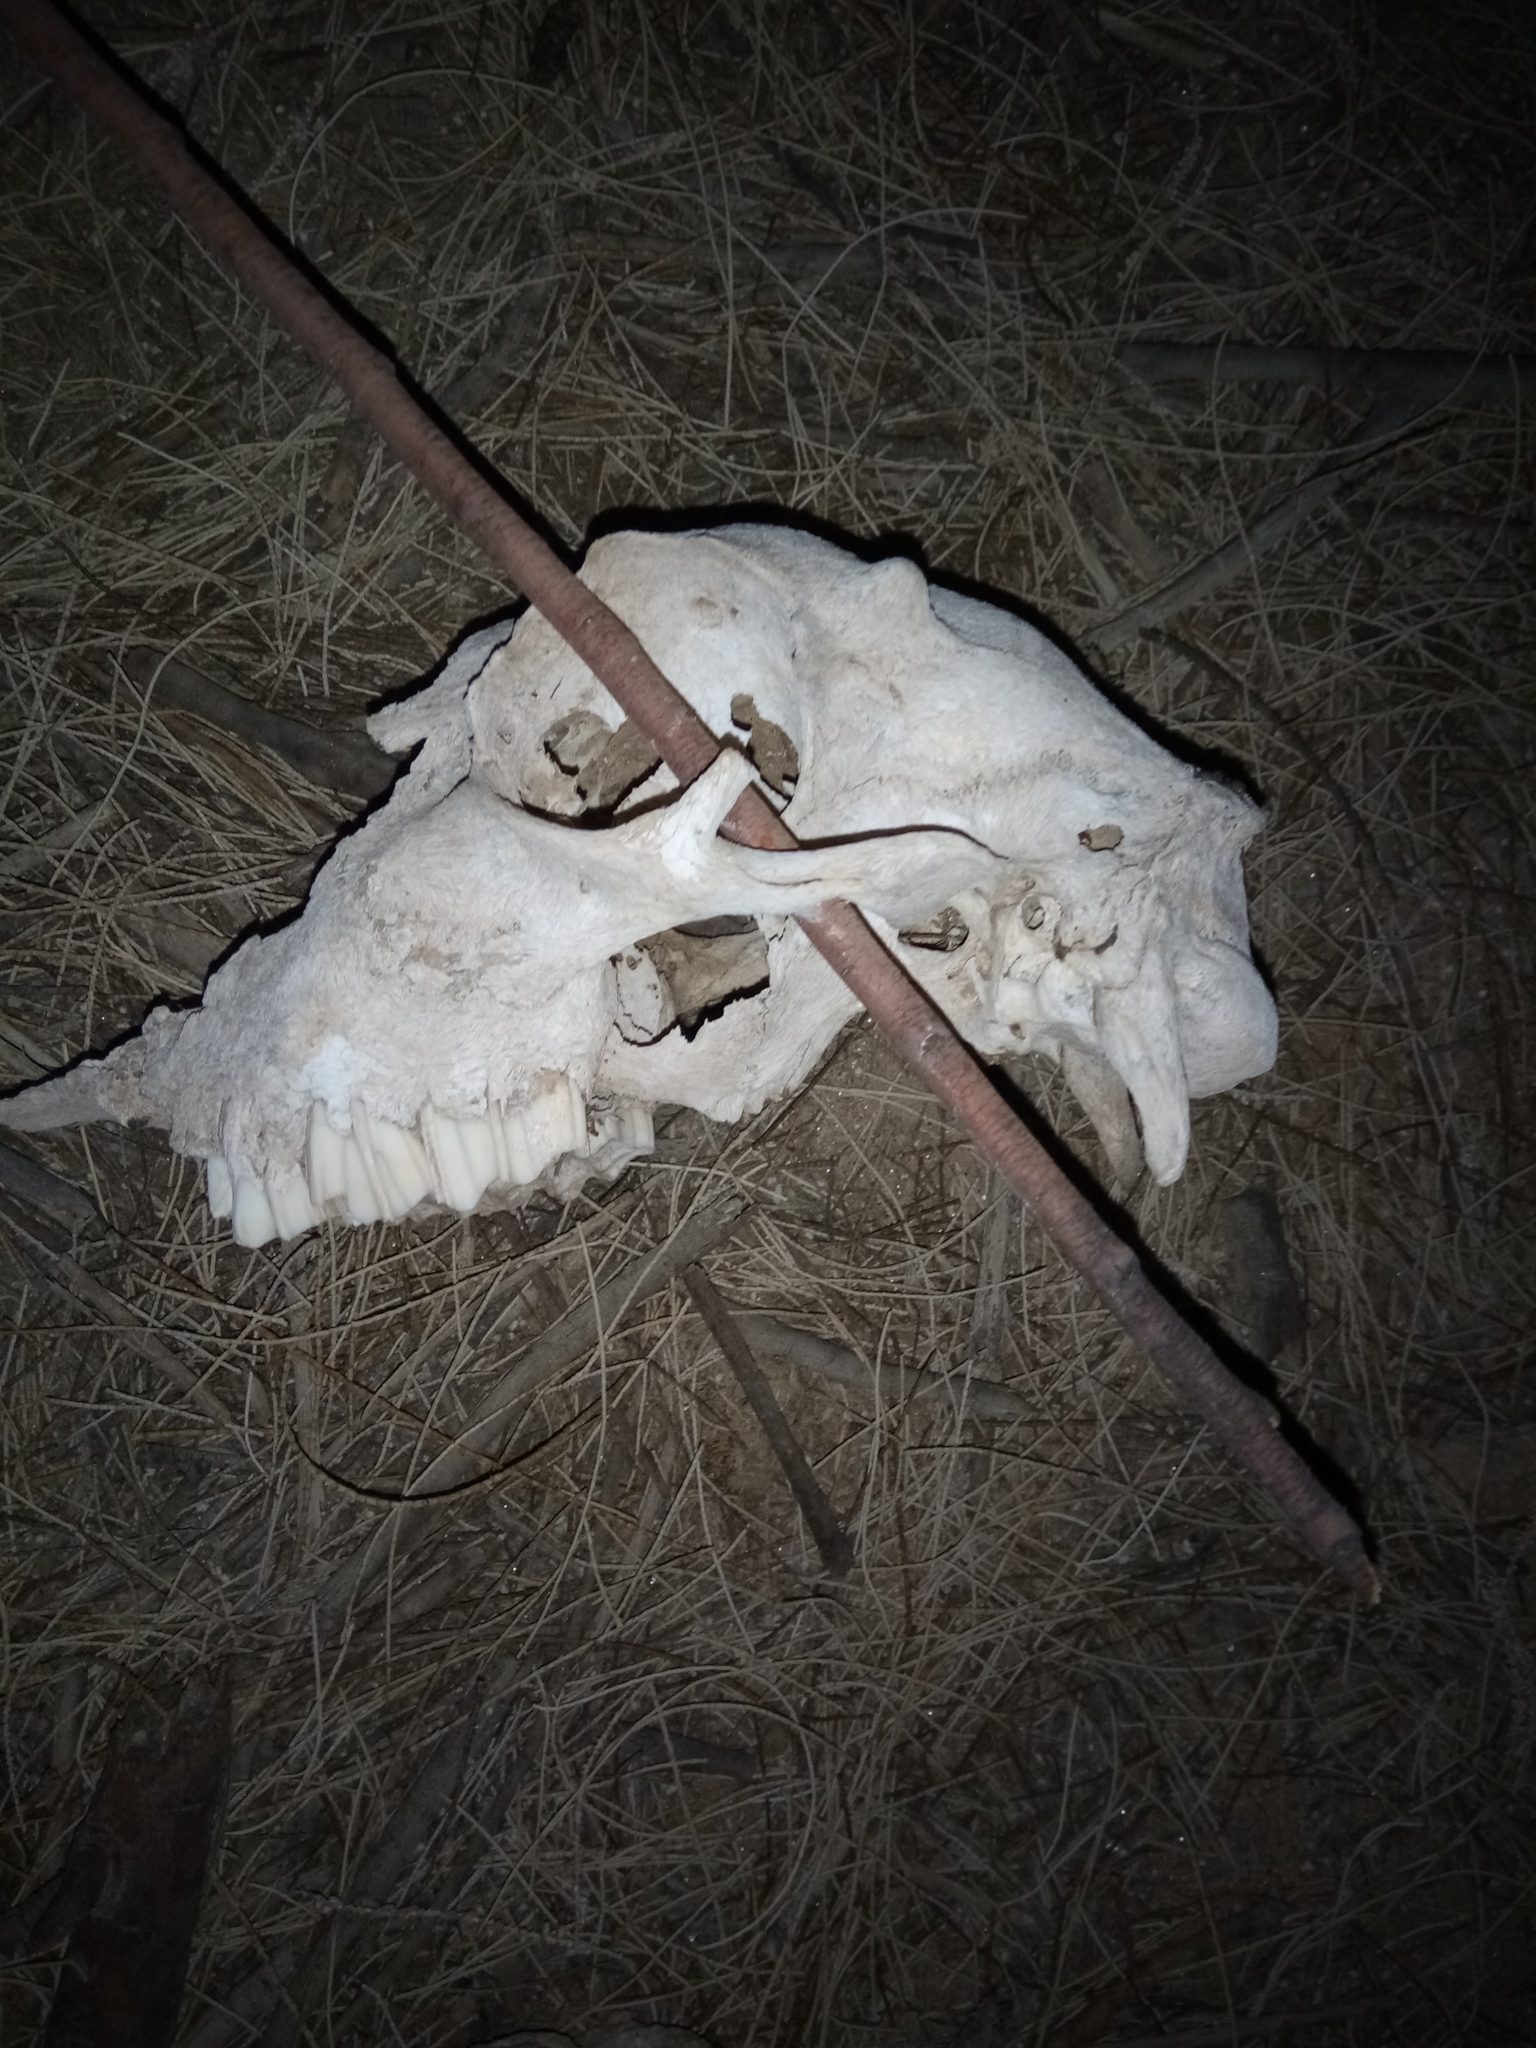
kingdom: Animalia
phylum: Chordata
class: Mammalia
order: Artiodactyla
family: Bovidae
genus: Ovis
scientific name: Ovis aries
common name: Domestic sheep
